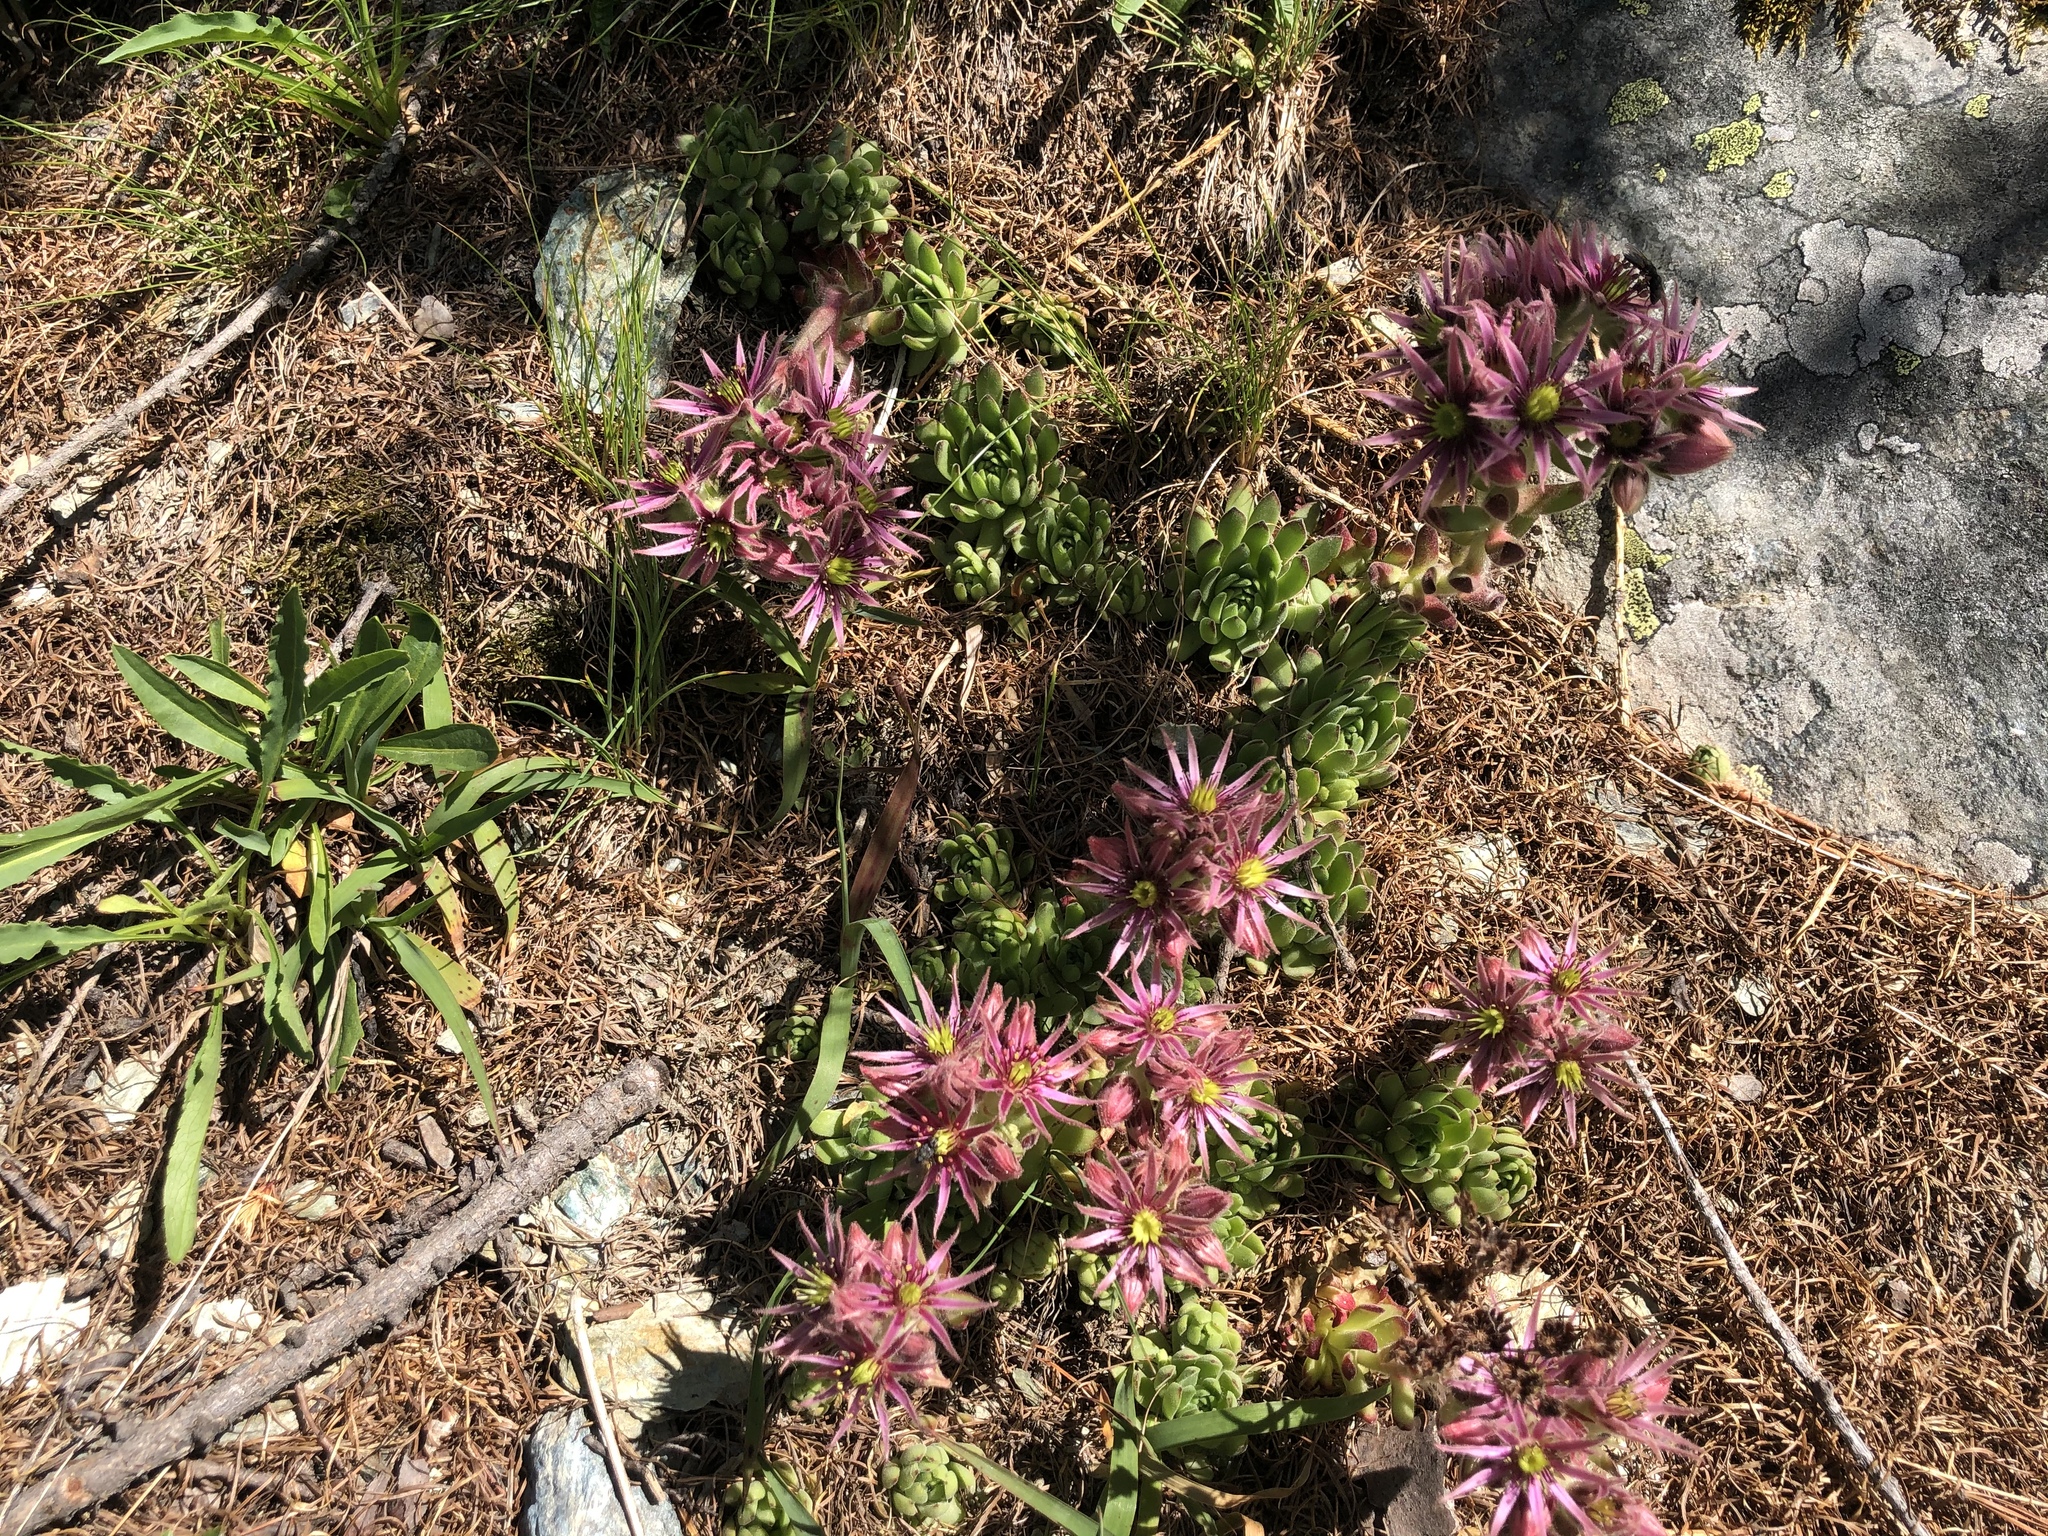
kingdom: Plantae
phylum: Tracheophyta
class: Magnoliopsida
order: Saxifragales
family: Crassulaceae
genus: Sempervivum
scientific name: Sempervivum montanum
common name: Mountain house-leek
